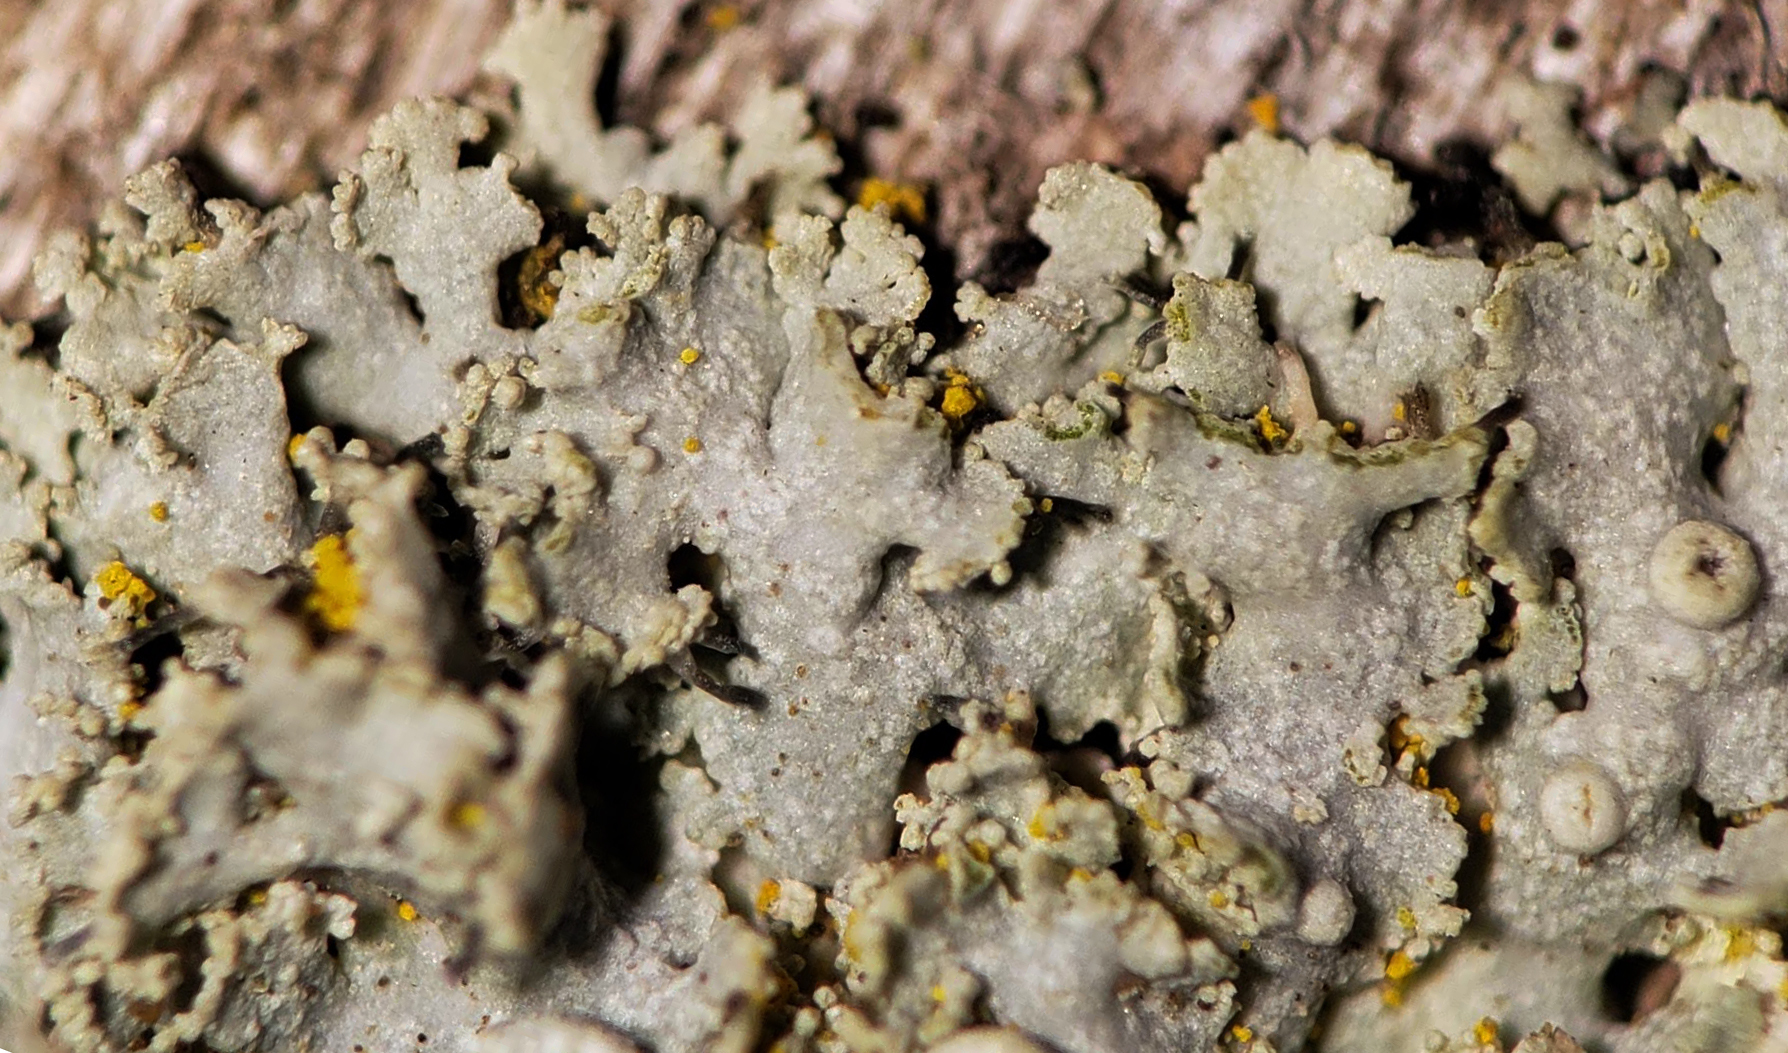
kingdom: Fungi
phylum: Ascomycota
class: Lecanoromycetes
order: Caliciales
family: Physciaceae
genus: Physcia
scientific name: Physcia millegrana
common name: Rosette lichen
